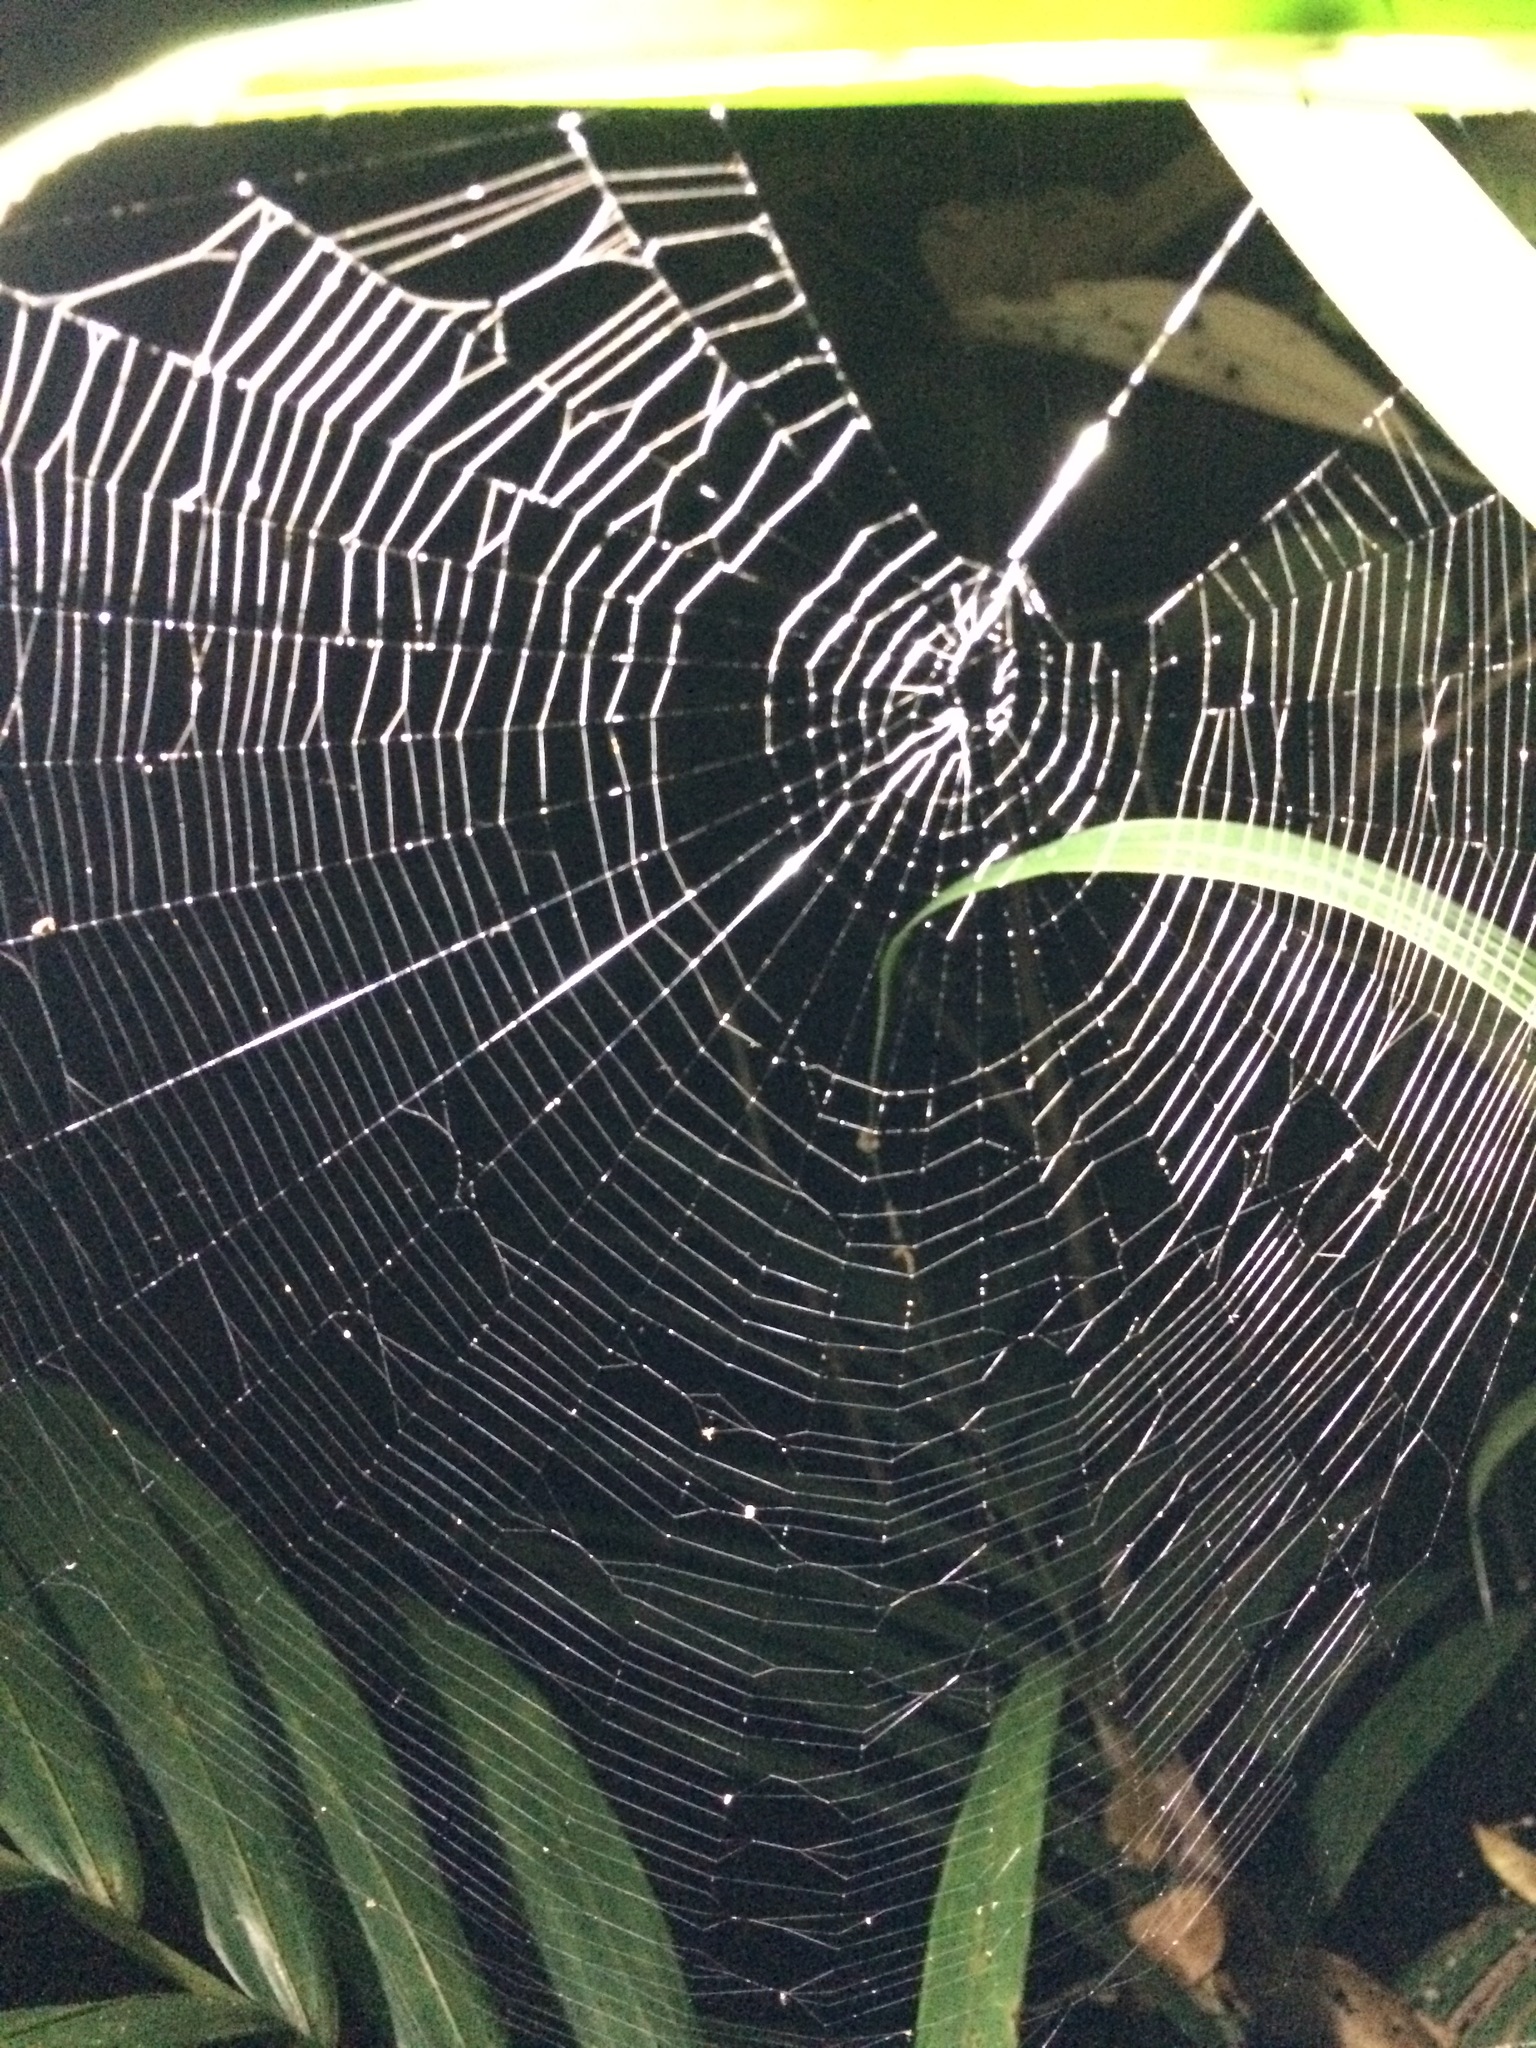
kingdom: Animalia
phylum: Arthropoda
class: Arachnida
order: Araneae
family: Araneidae
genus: Alpaida
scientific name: Alpaida truncata
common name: Orb weavers
